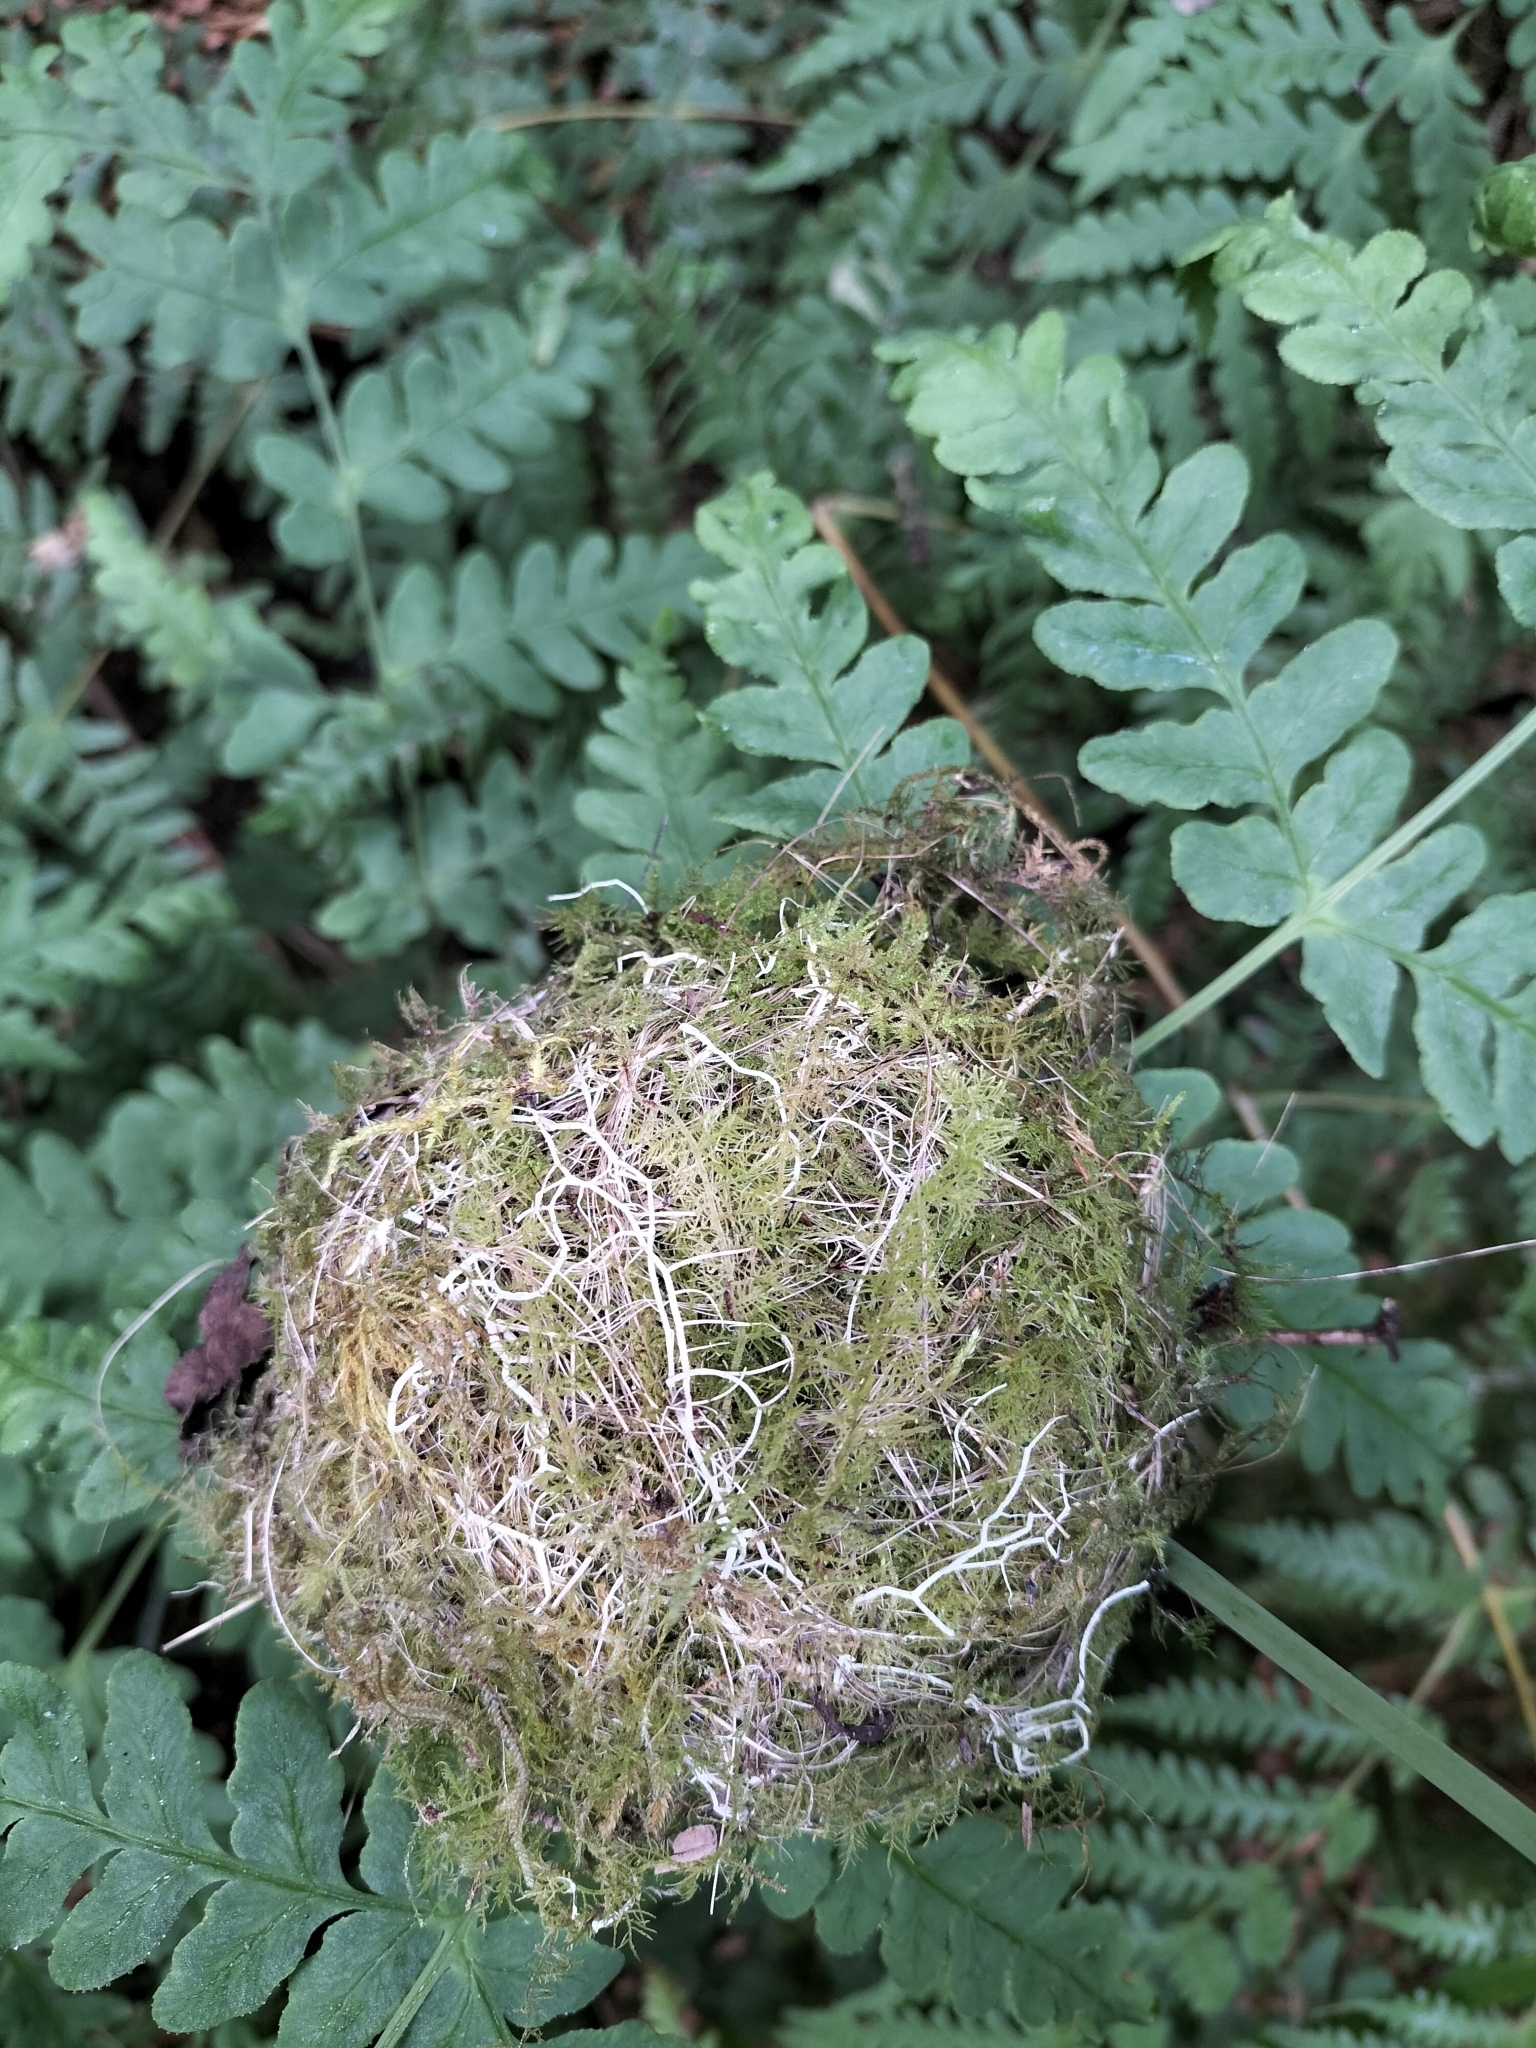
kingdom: Animalia
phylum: Chordata
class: Aves
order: Passeriformes
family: Zosteropidae
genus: Zosterops
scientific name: Zosterops lateralis
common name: Silvereye
